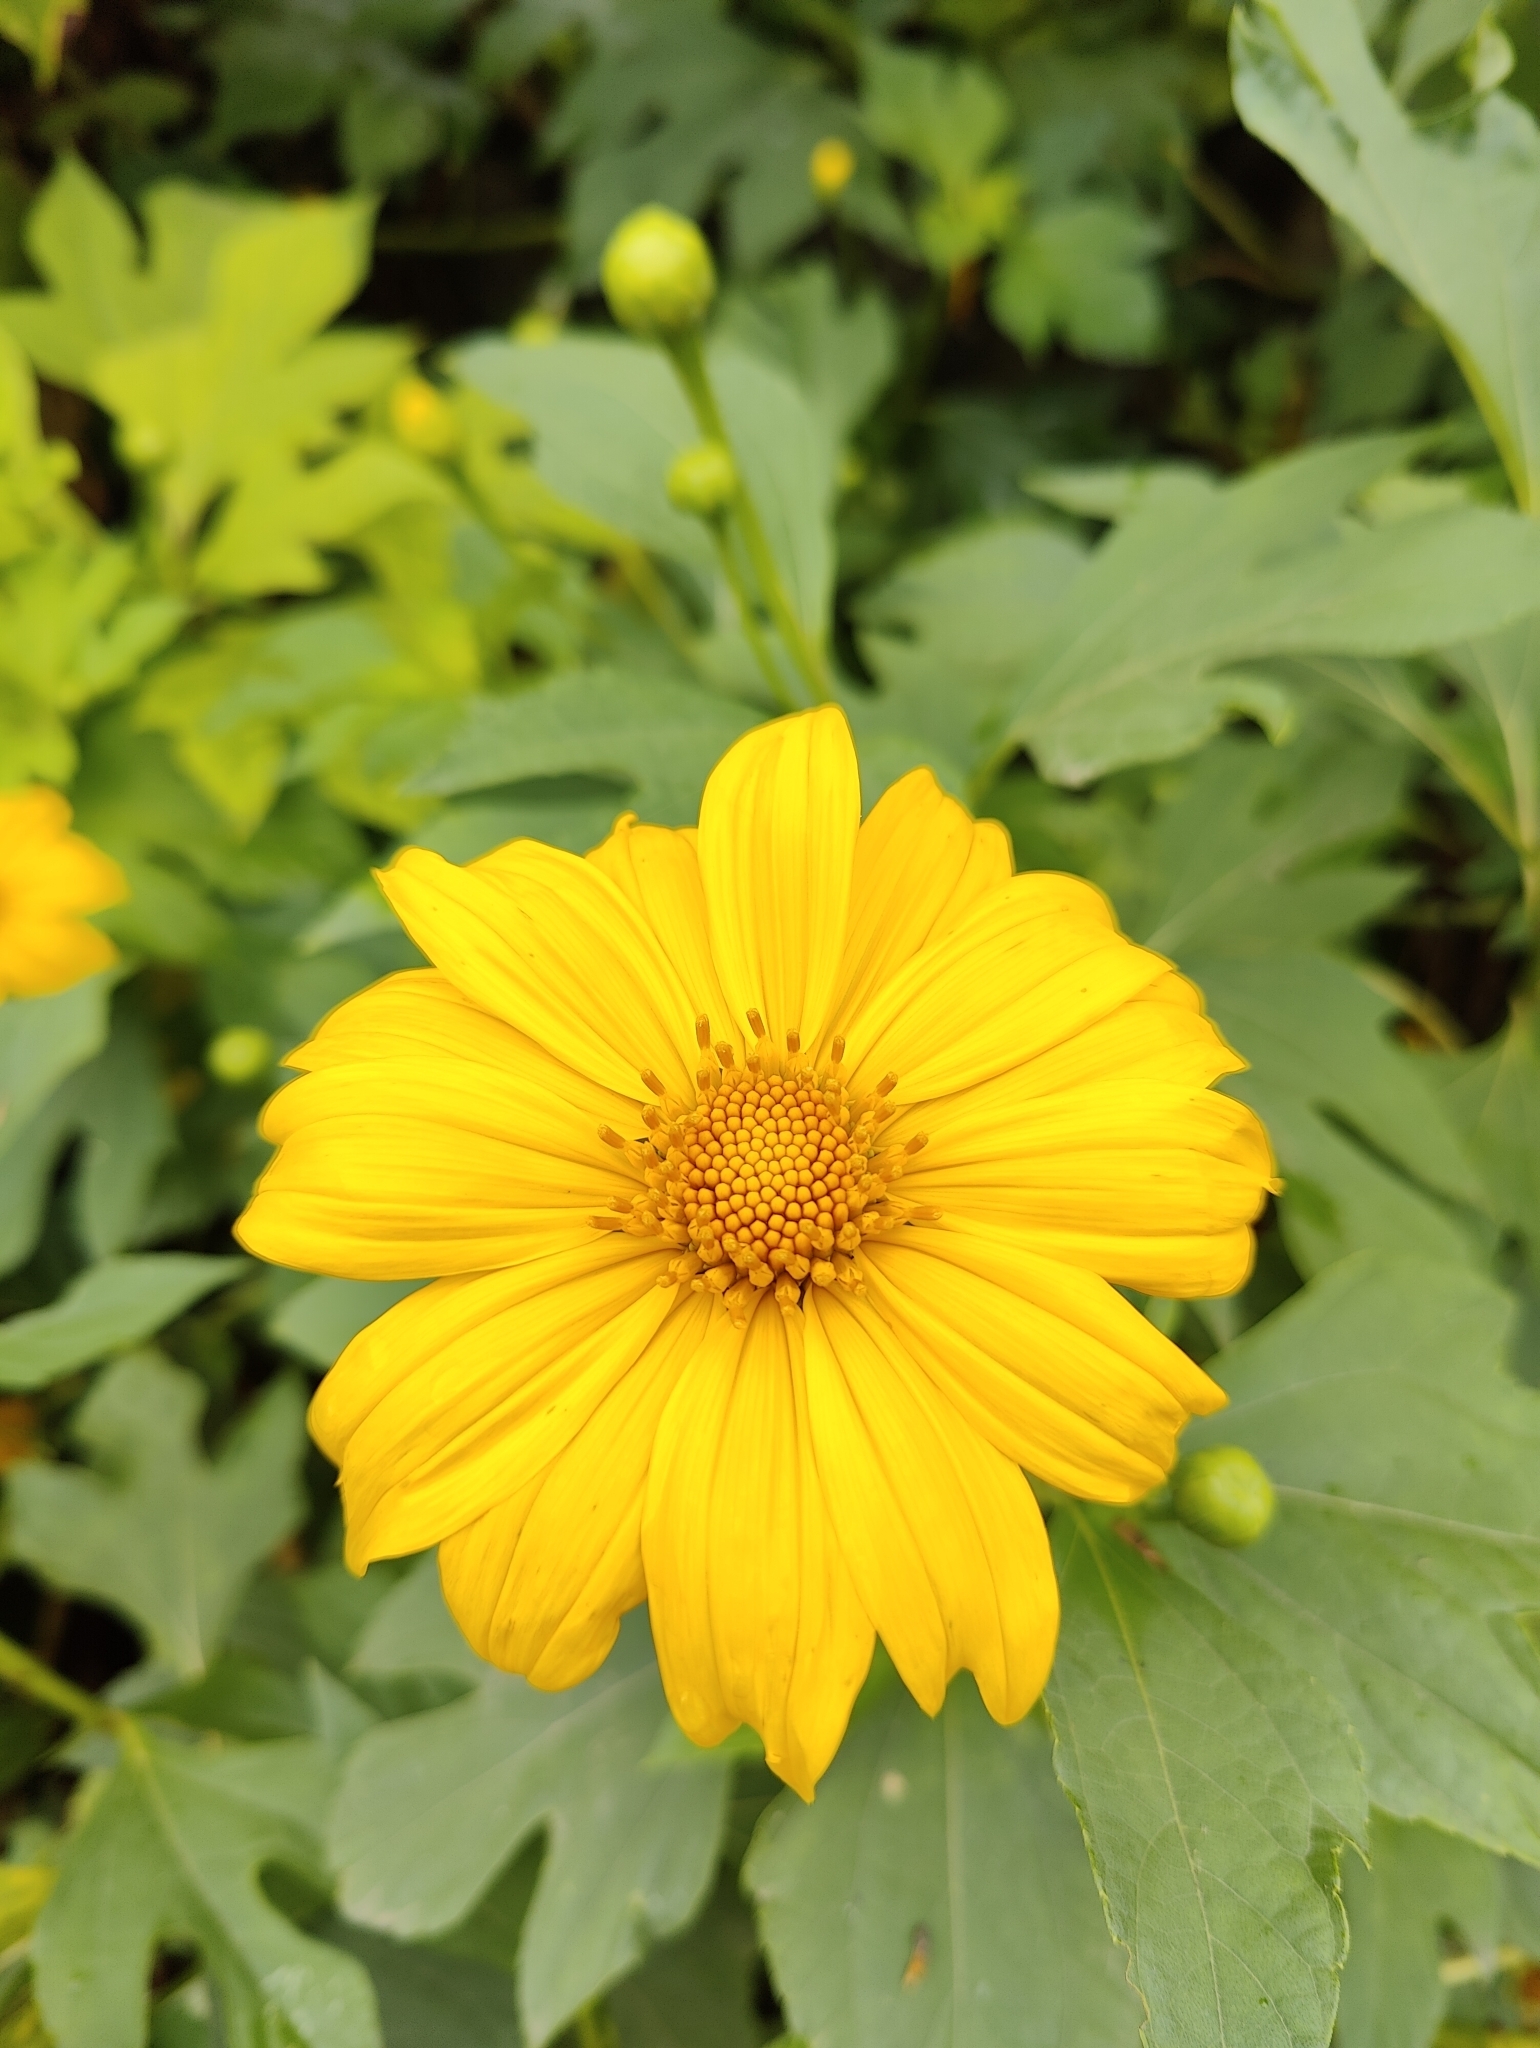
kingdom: Plantae
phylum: Tracheophyta
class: Magnoliopsida
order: Asterales
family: Asteraceae
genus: Tithonia
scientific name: Tithonia diversifolia
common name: Tree marigold
